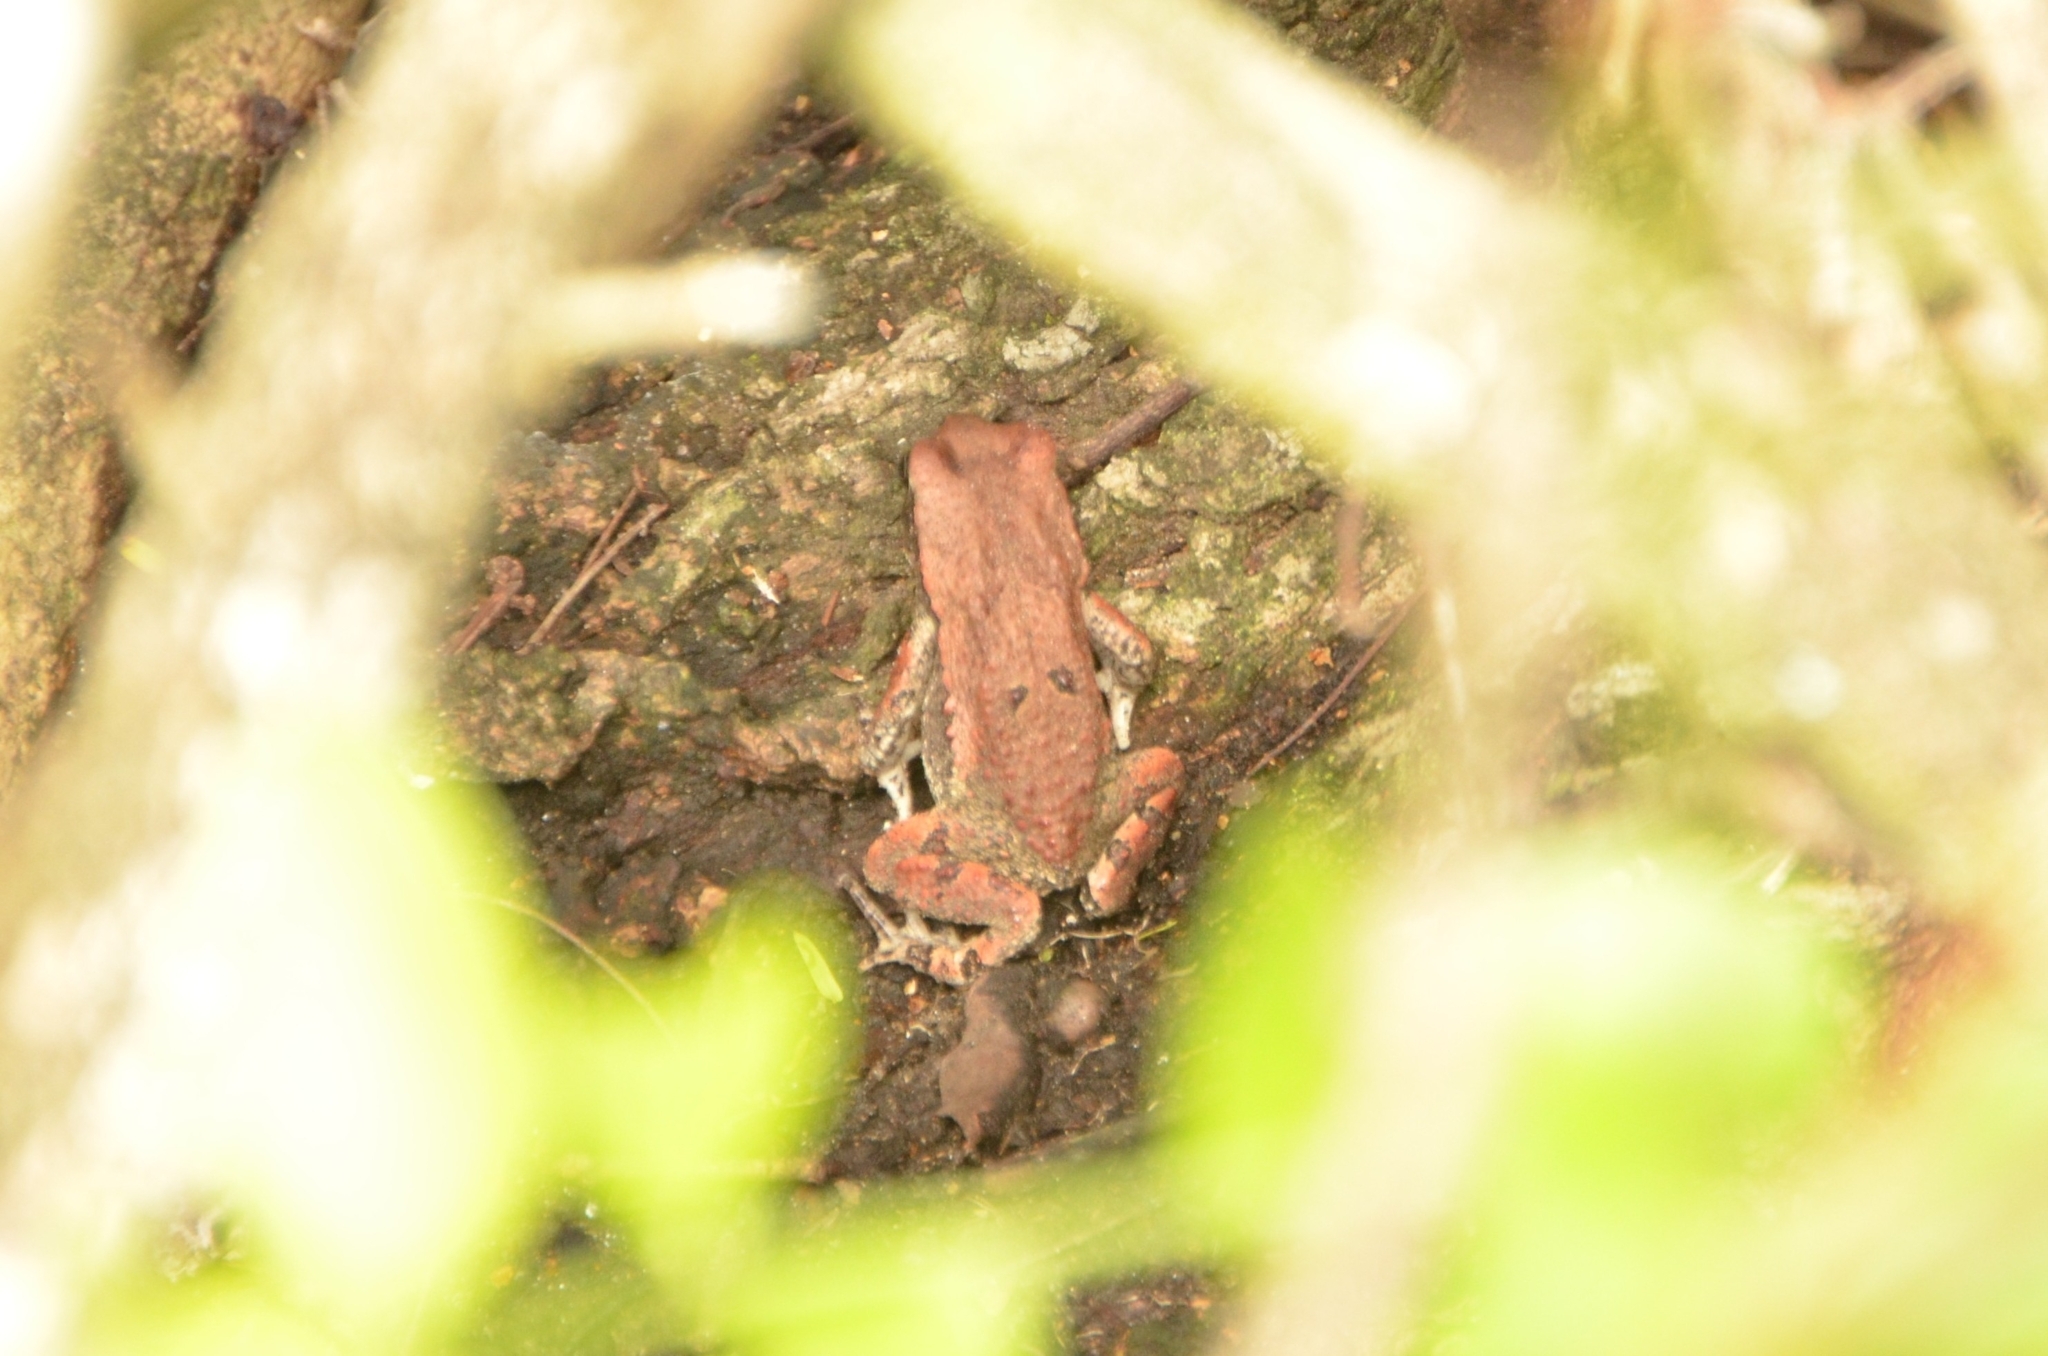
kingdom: Animalia
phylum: Chordata
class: Amphibia
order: Anura
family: Bufonidae
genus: Schismaderma
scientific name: Schismaderma carens
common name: African split-skin toad
